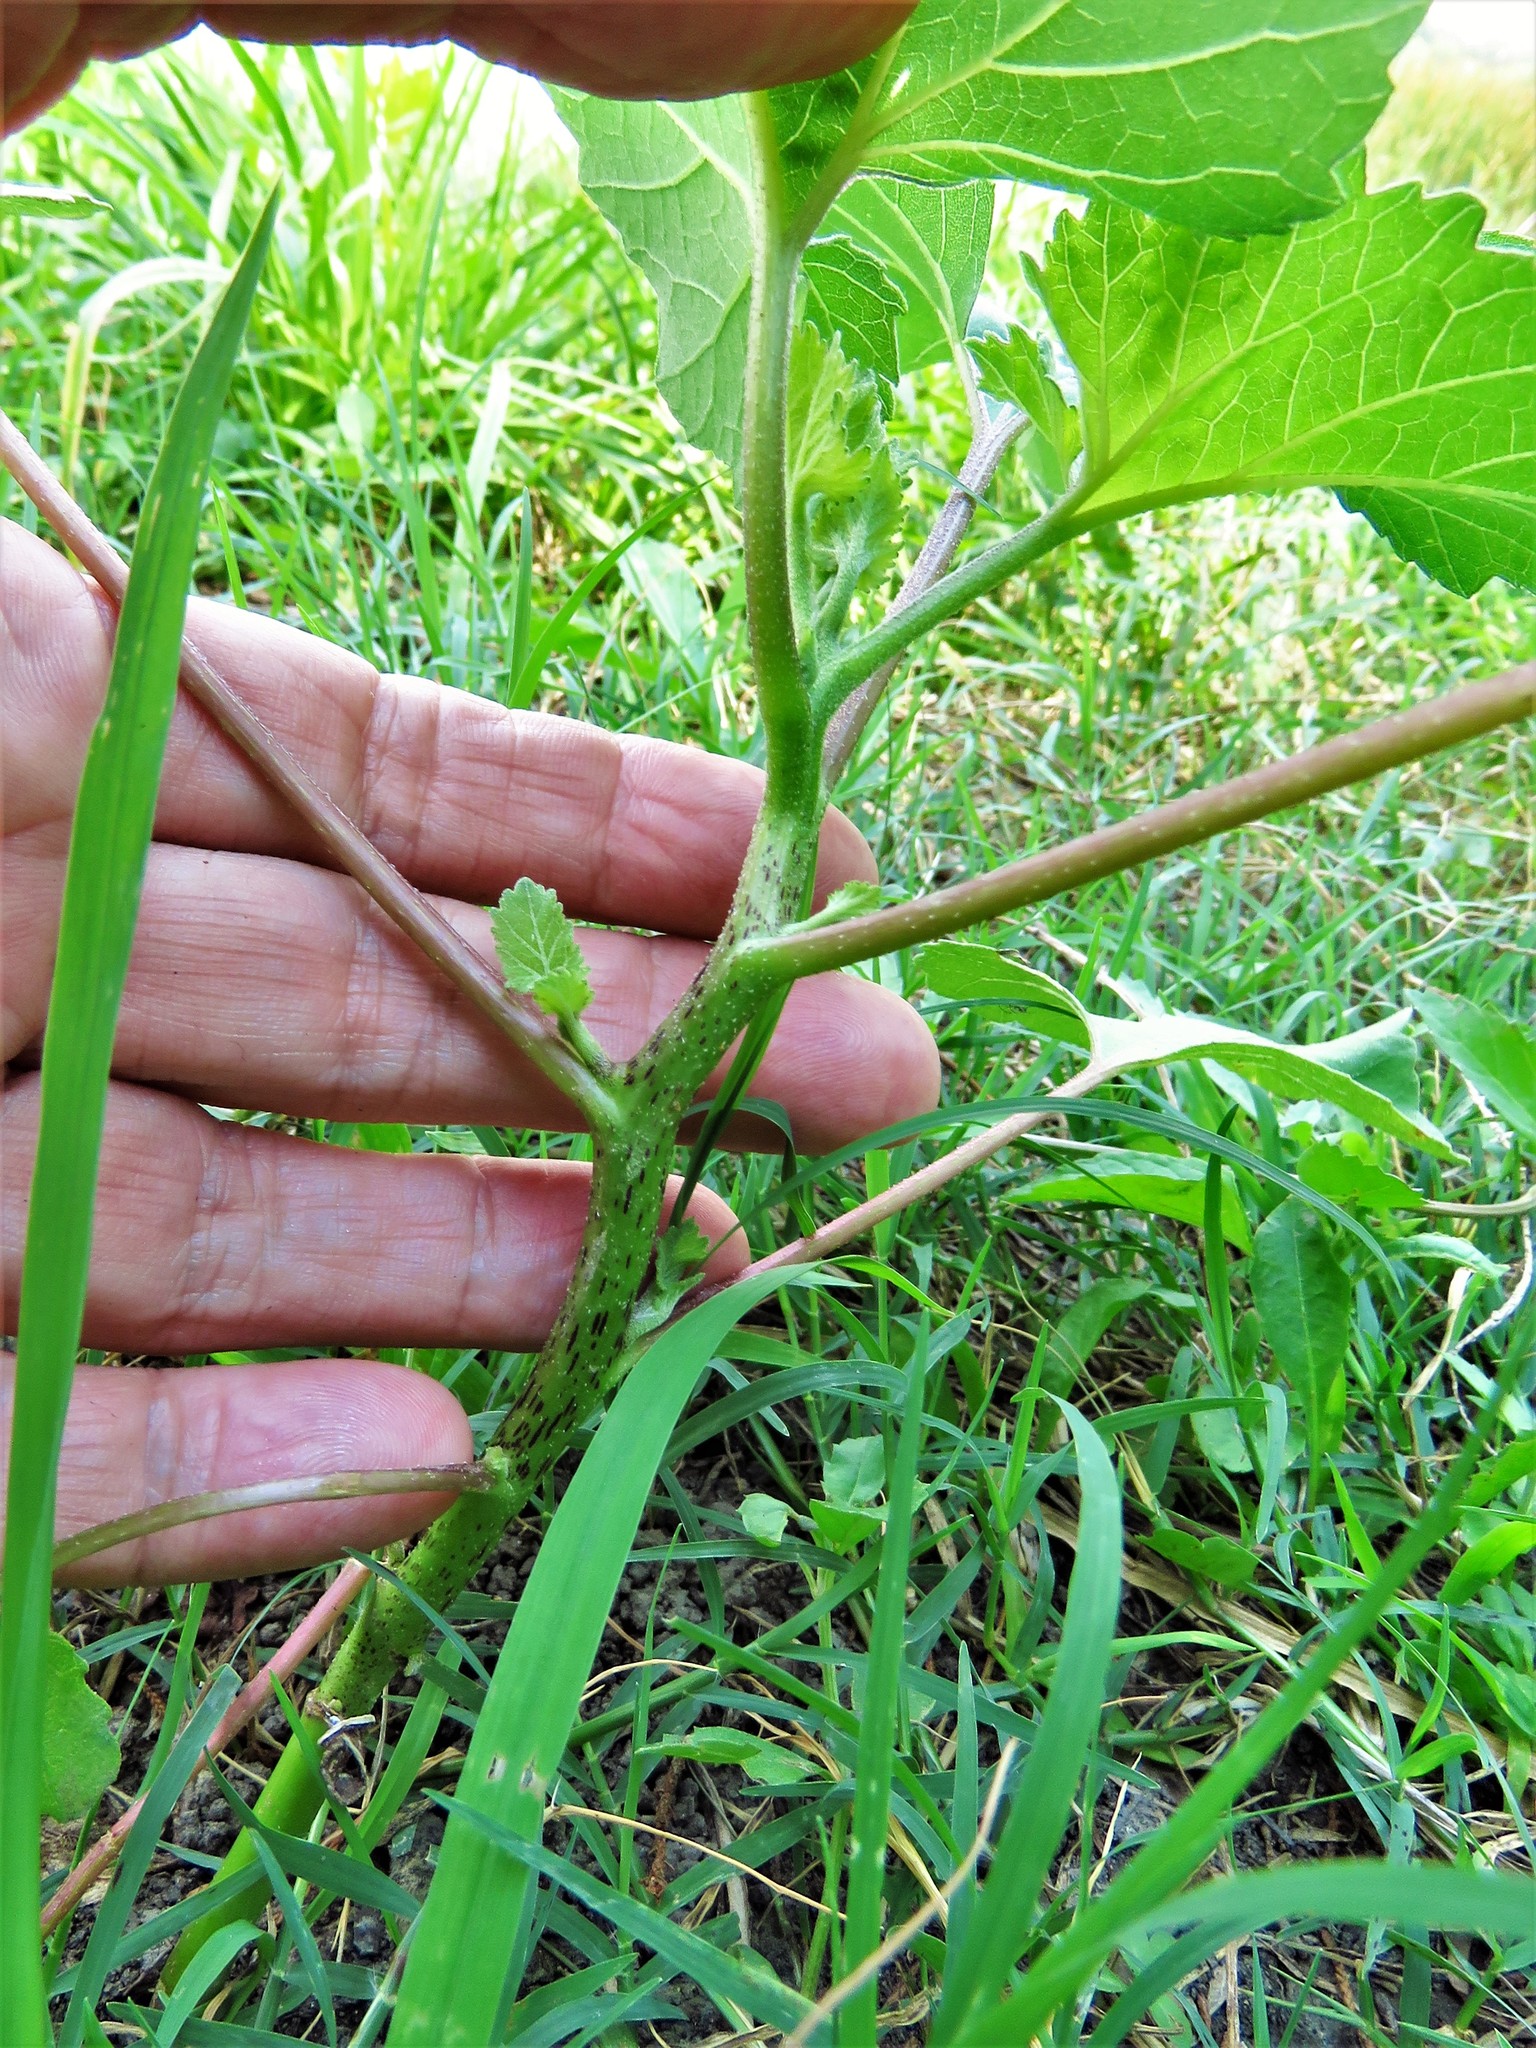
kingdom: Plantae
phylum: Tracheophyta
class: Magnoliopsida
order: Asterales
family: Asteraceae
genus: Xanthium
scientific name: Xanthium strumarium
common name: Rough cocklebur
